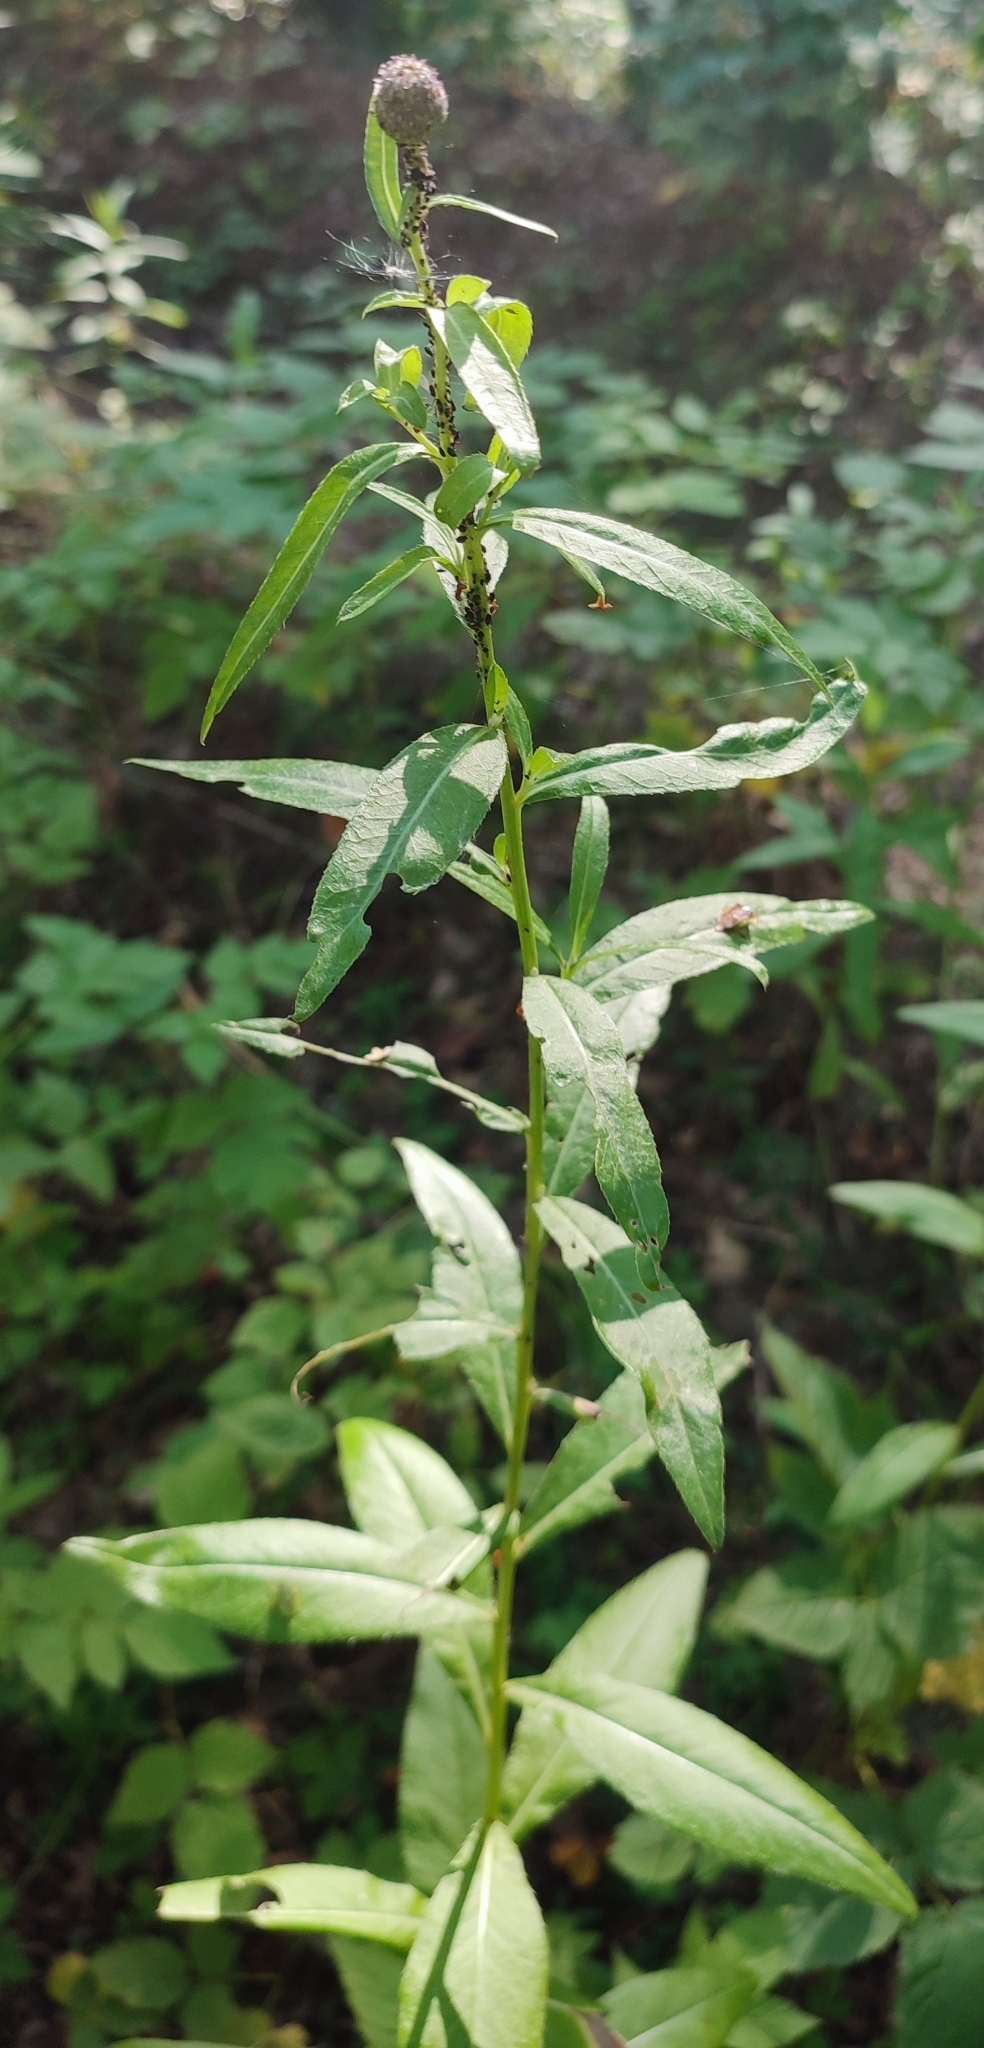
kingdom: Plantae
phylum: Tracheophyta
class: Magnoliopsida
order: Asterales
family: Asteraceae
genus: Cirsium
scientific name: Cirsium arvense
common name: Creeping thistle
